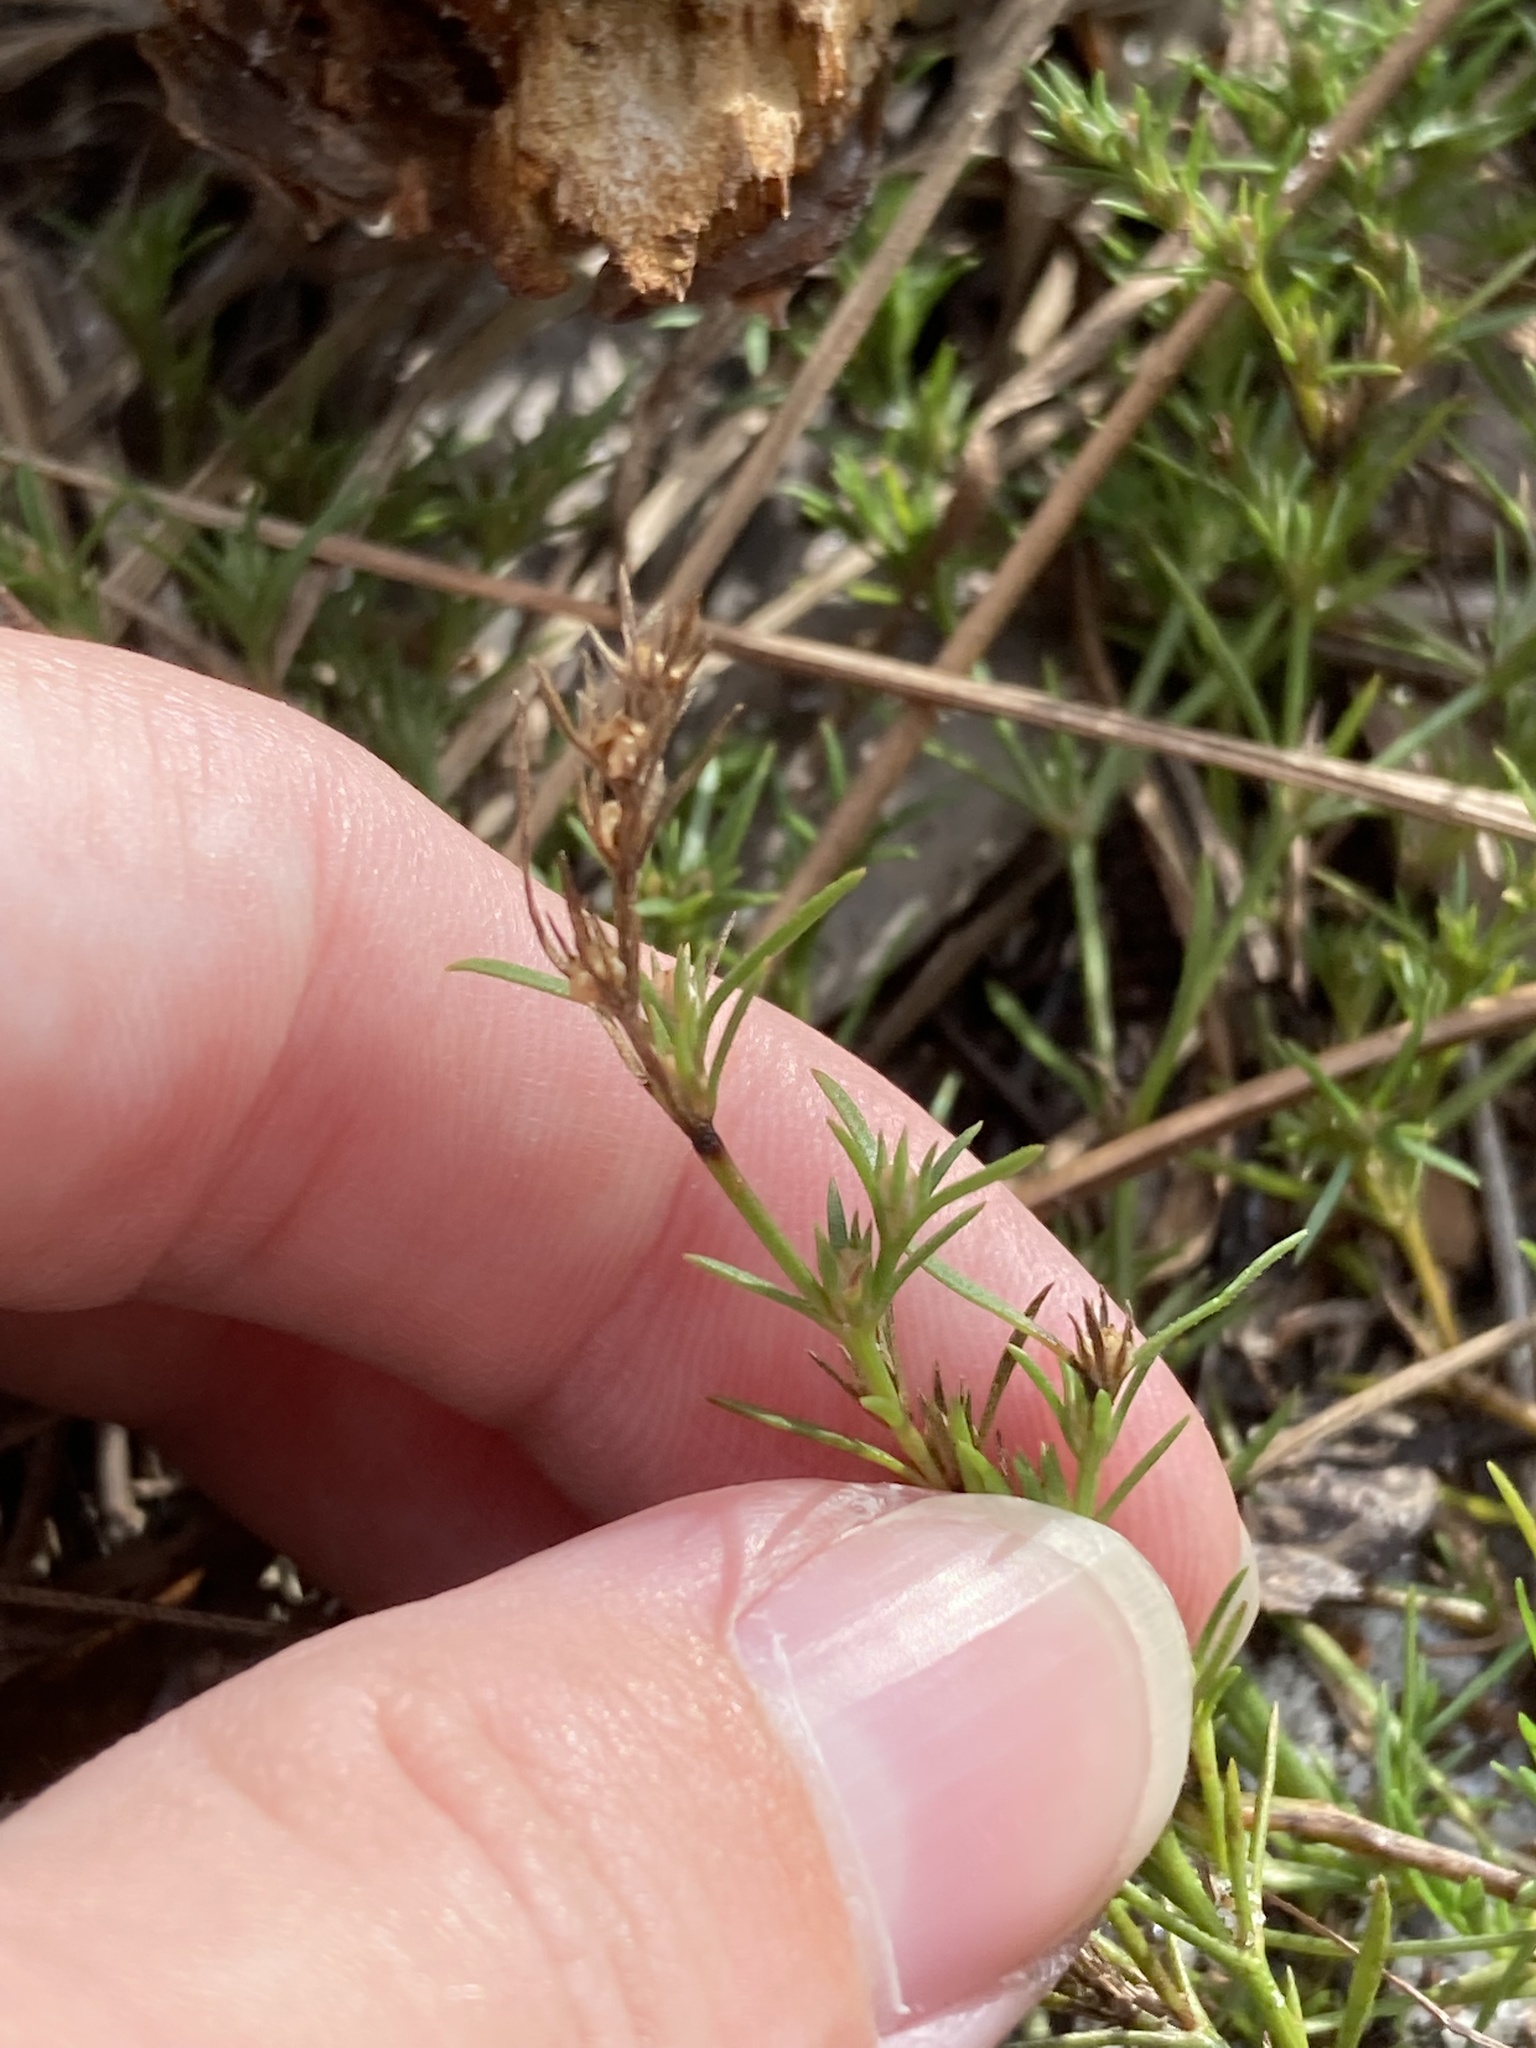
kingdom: Plantae
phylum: Tracheophyta
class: Magnoliopsida
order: Lamiales
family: Tetrachondraceae
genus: Polypremum
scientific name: Polypremum procumbens
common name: Juniper-leaf
